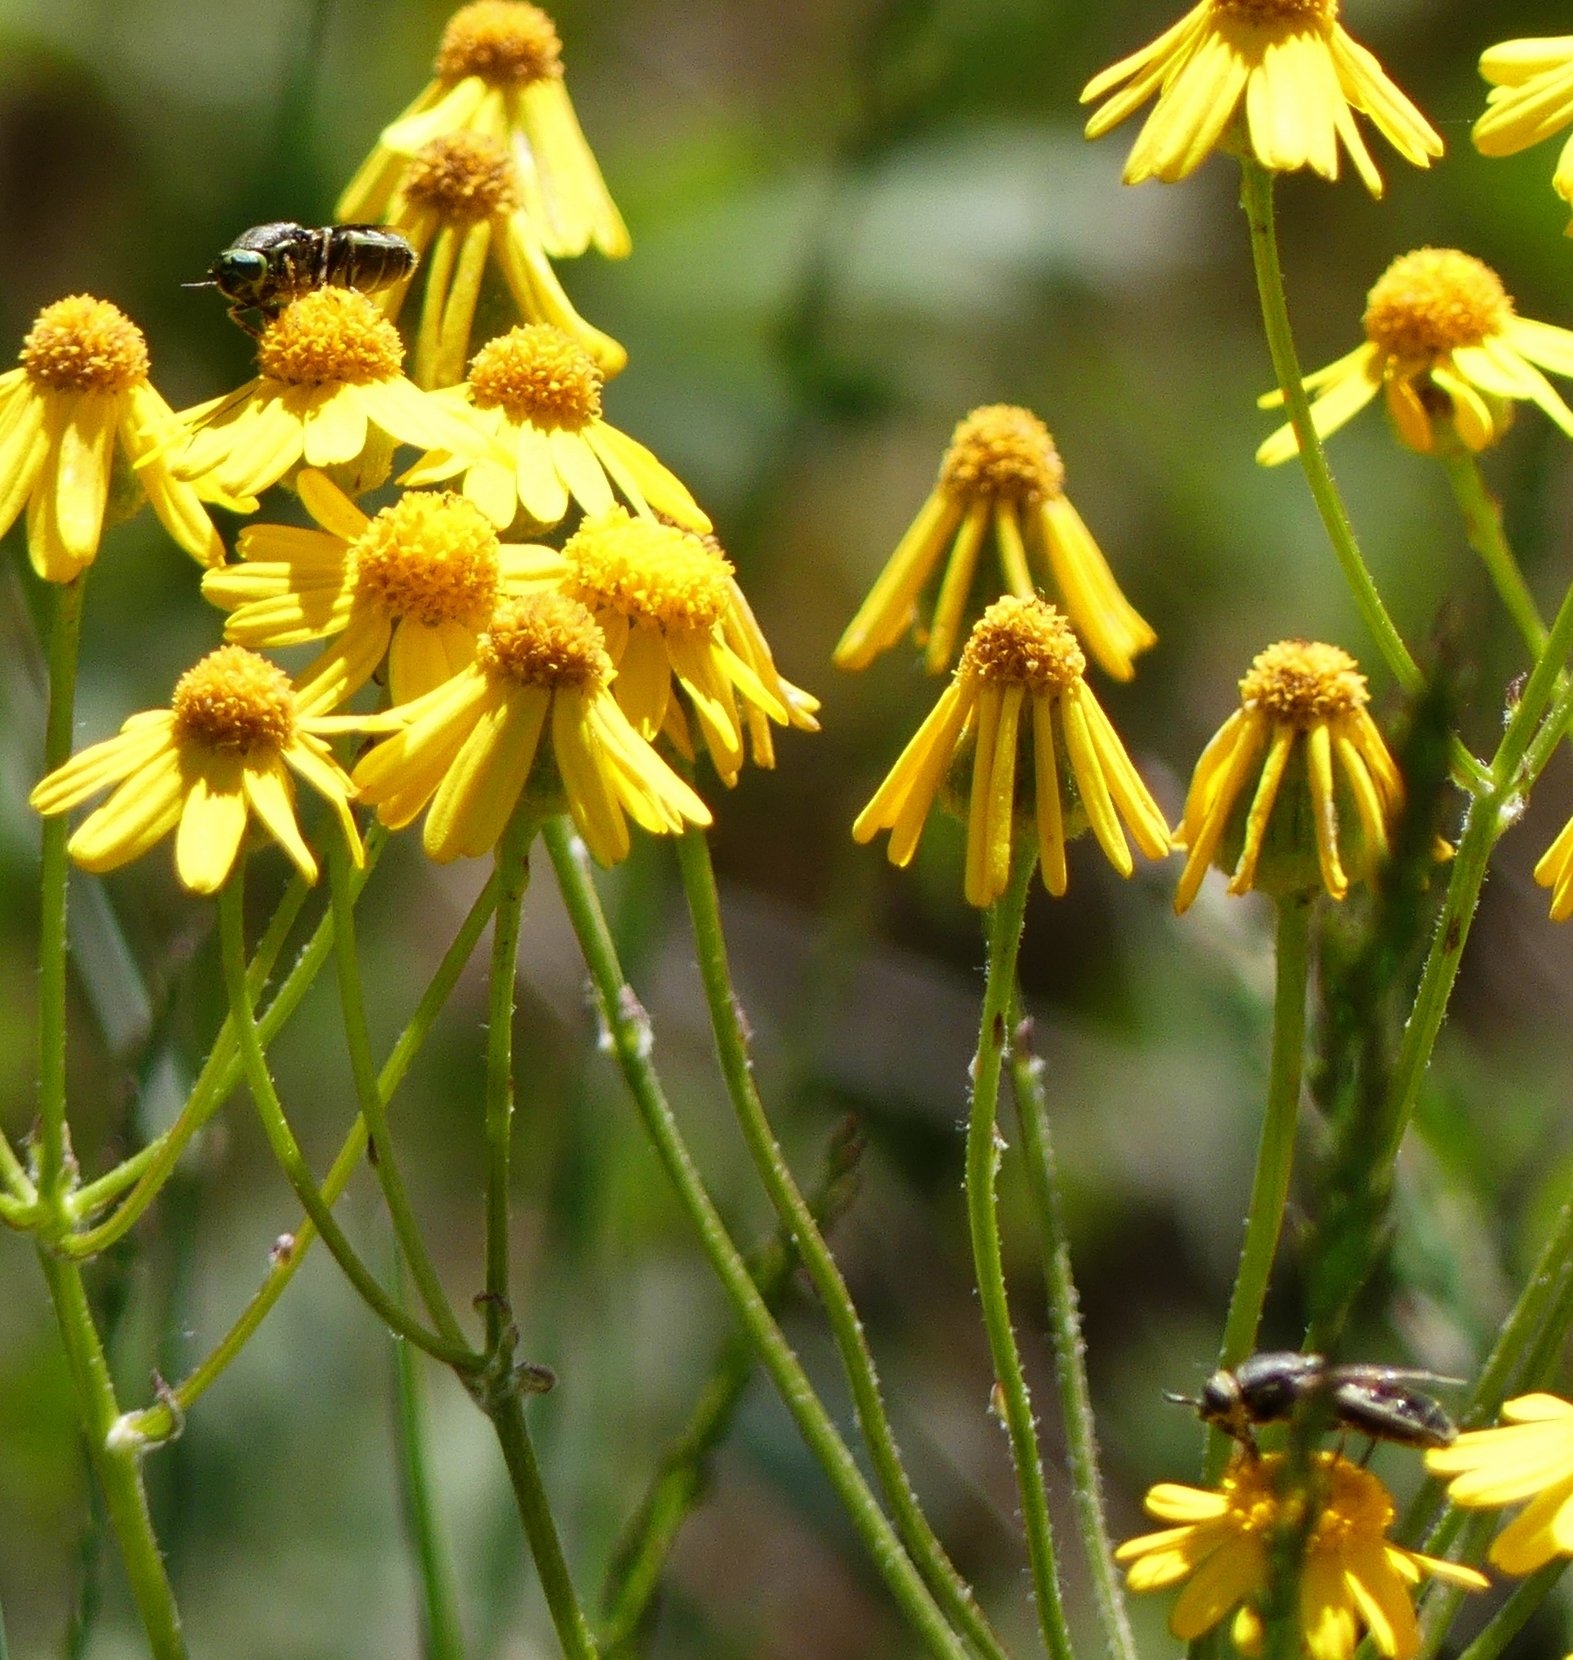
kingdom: Plantae
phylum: Tracheophyta
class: Magnoliopsida
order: Asterales
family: Asteraceae
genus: Packera
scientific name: Packera paupercula
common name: Balsam groundsel
